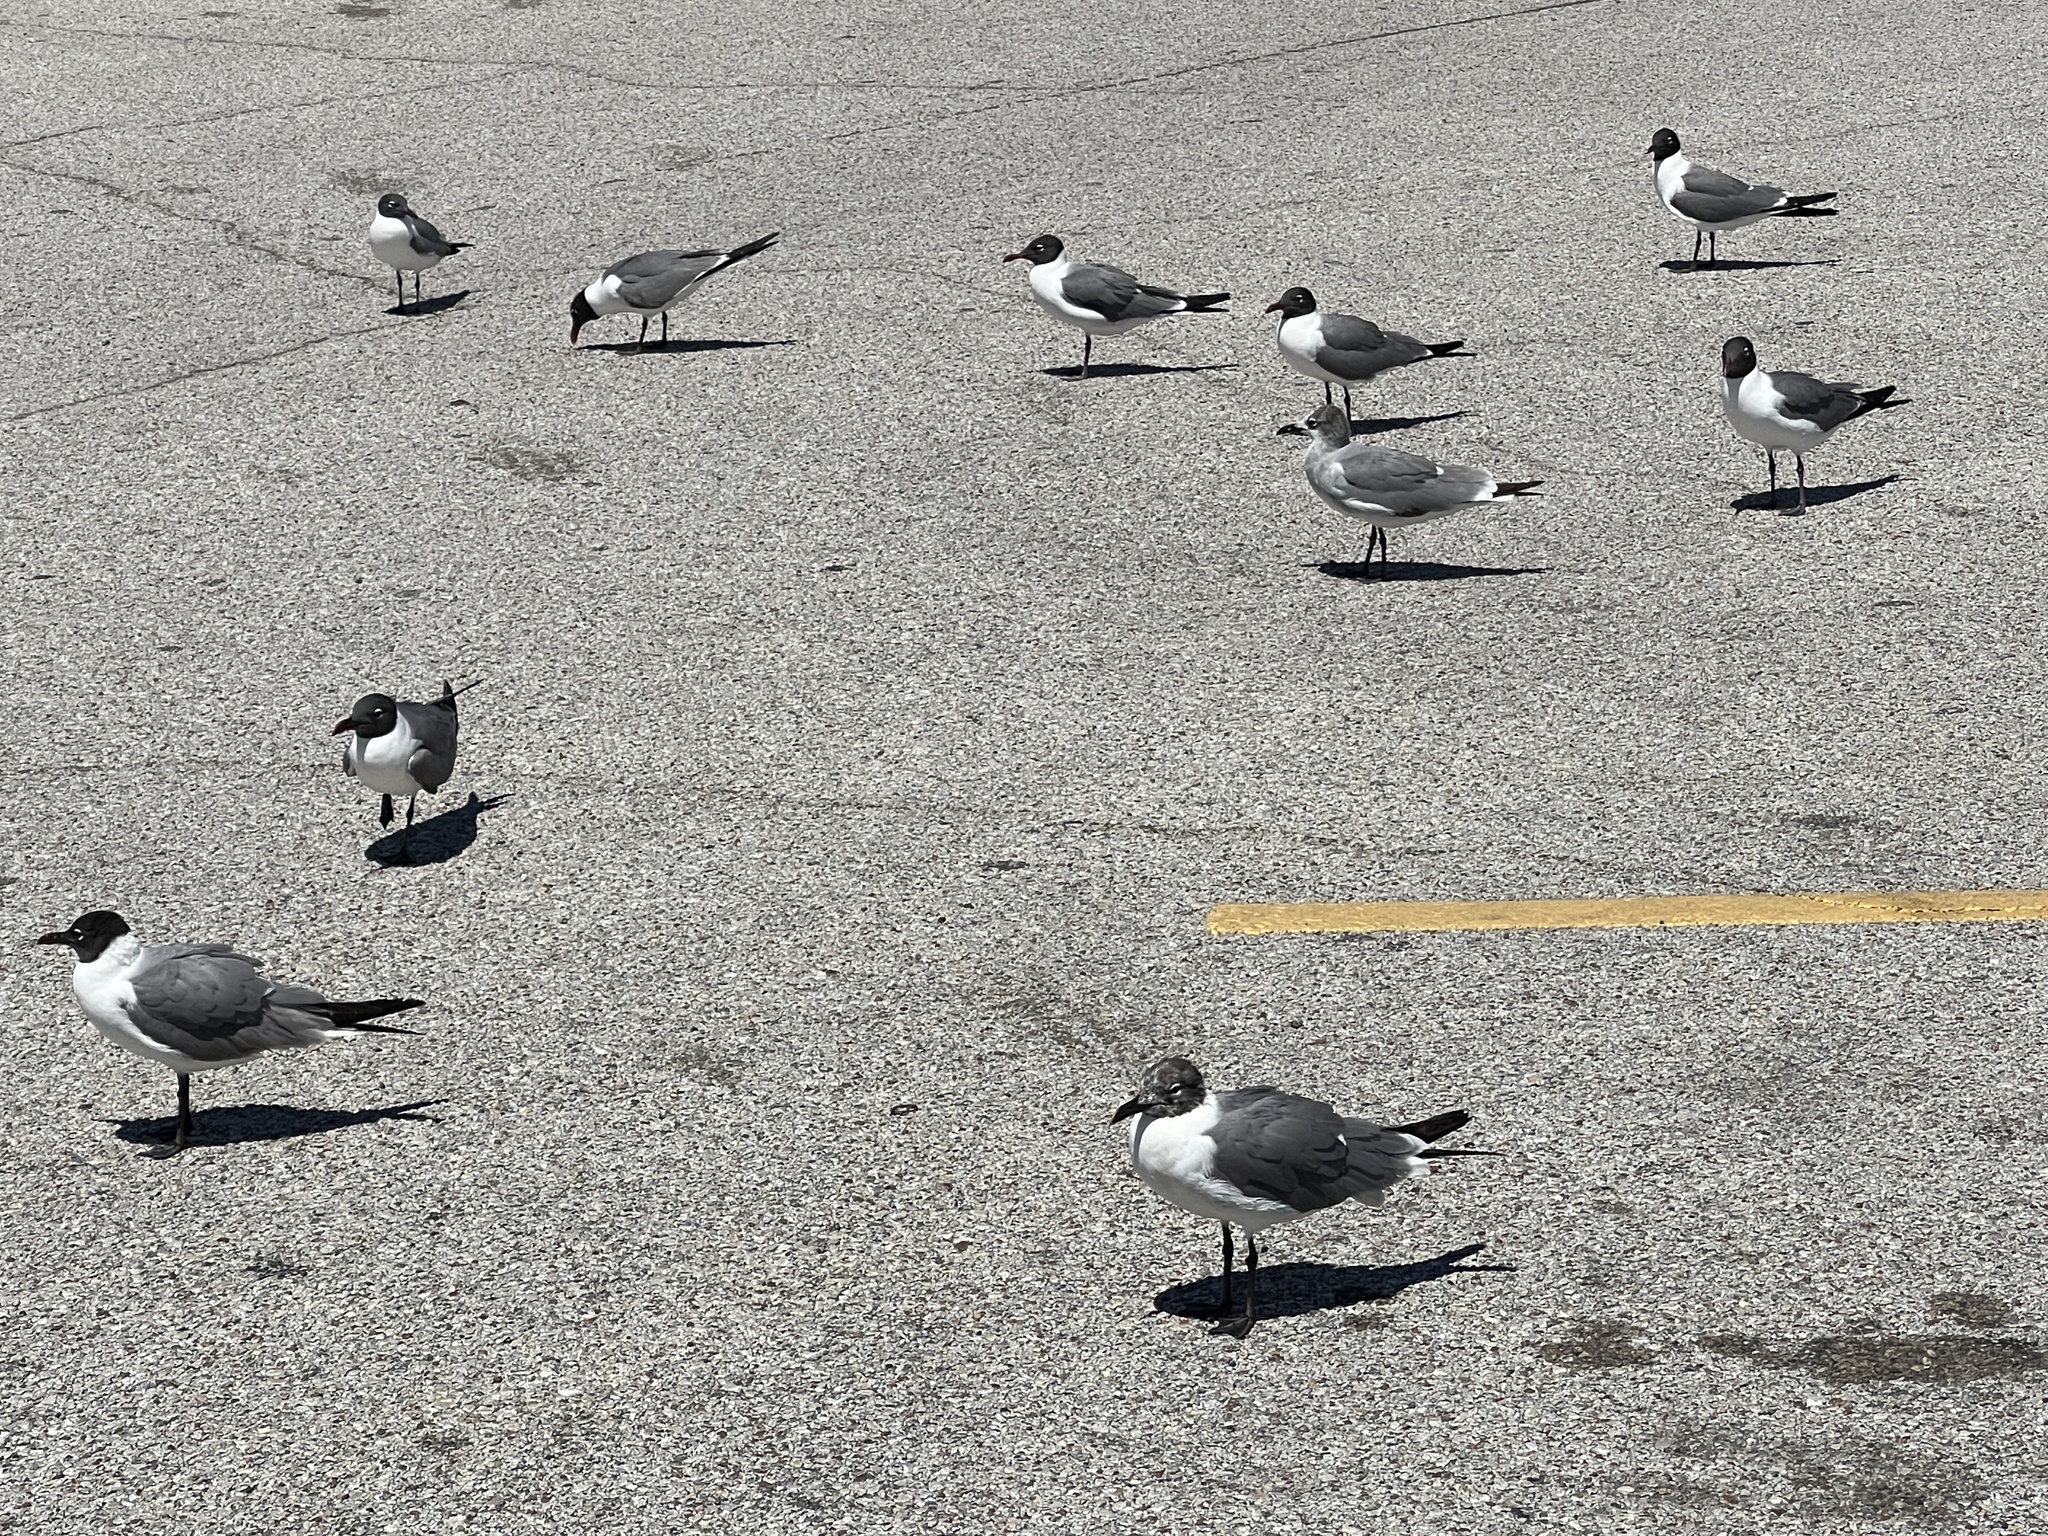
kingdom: Animalia
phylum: Chordata
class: Aves
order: Charadriiformes
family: Laridae
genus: Leucophaeus
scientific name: Leucophaeus atricilla
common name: Laughing gull
